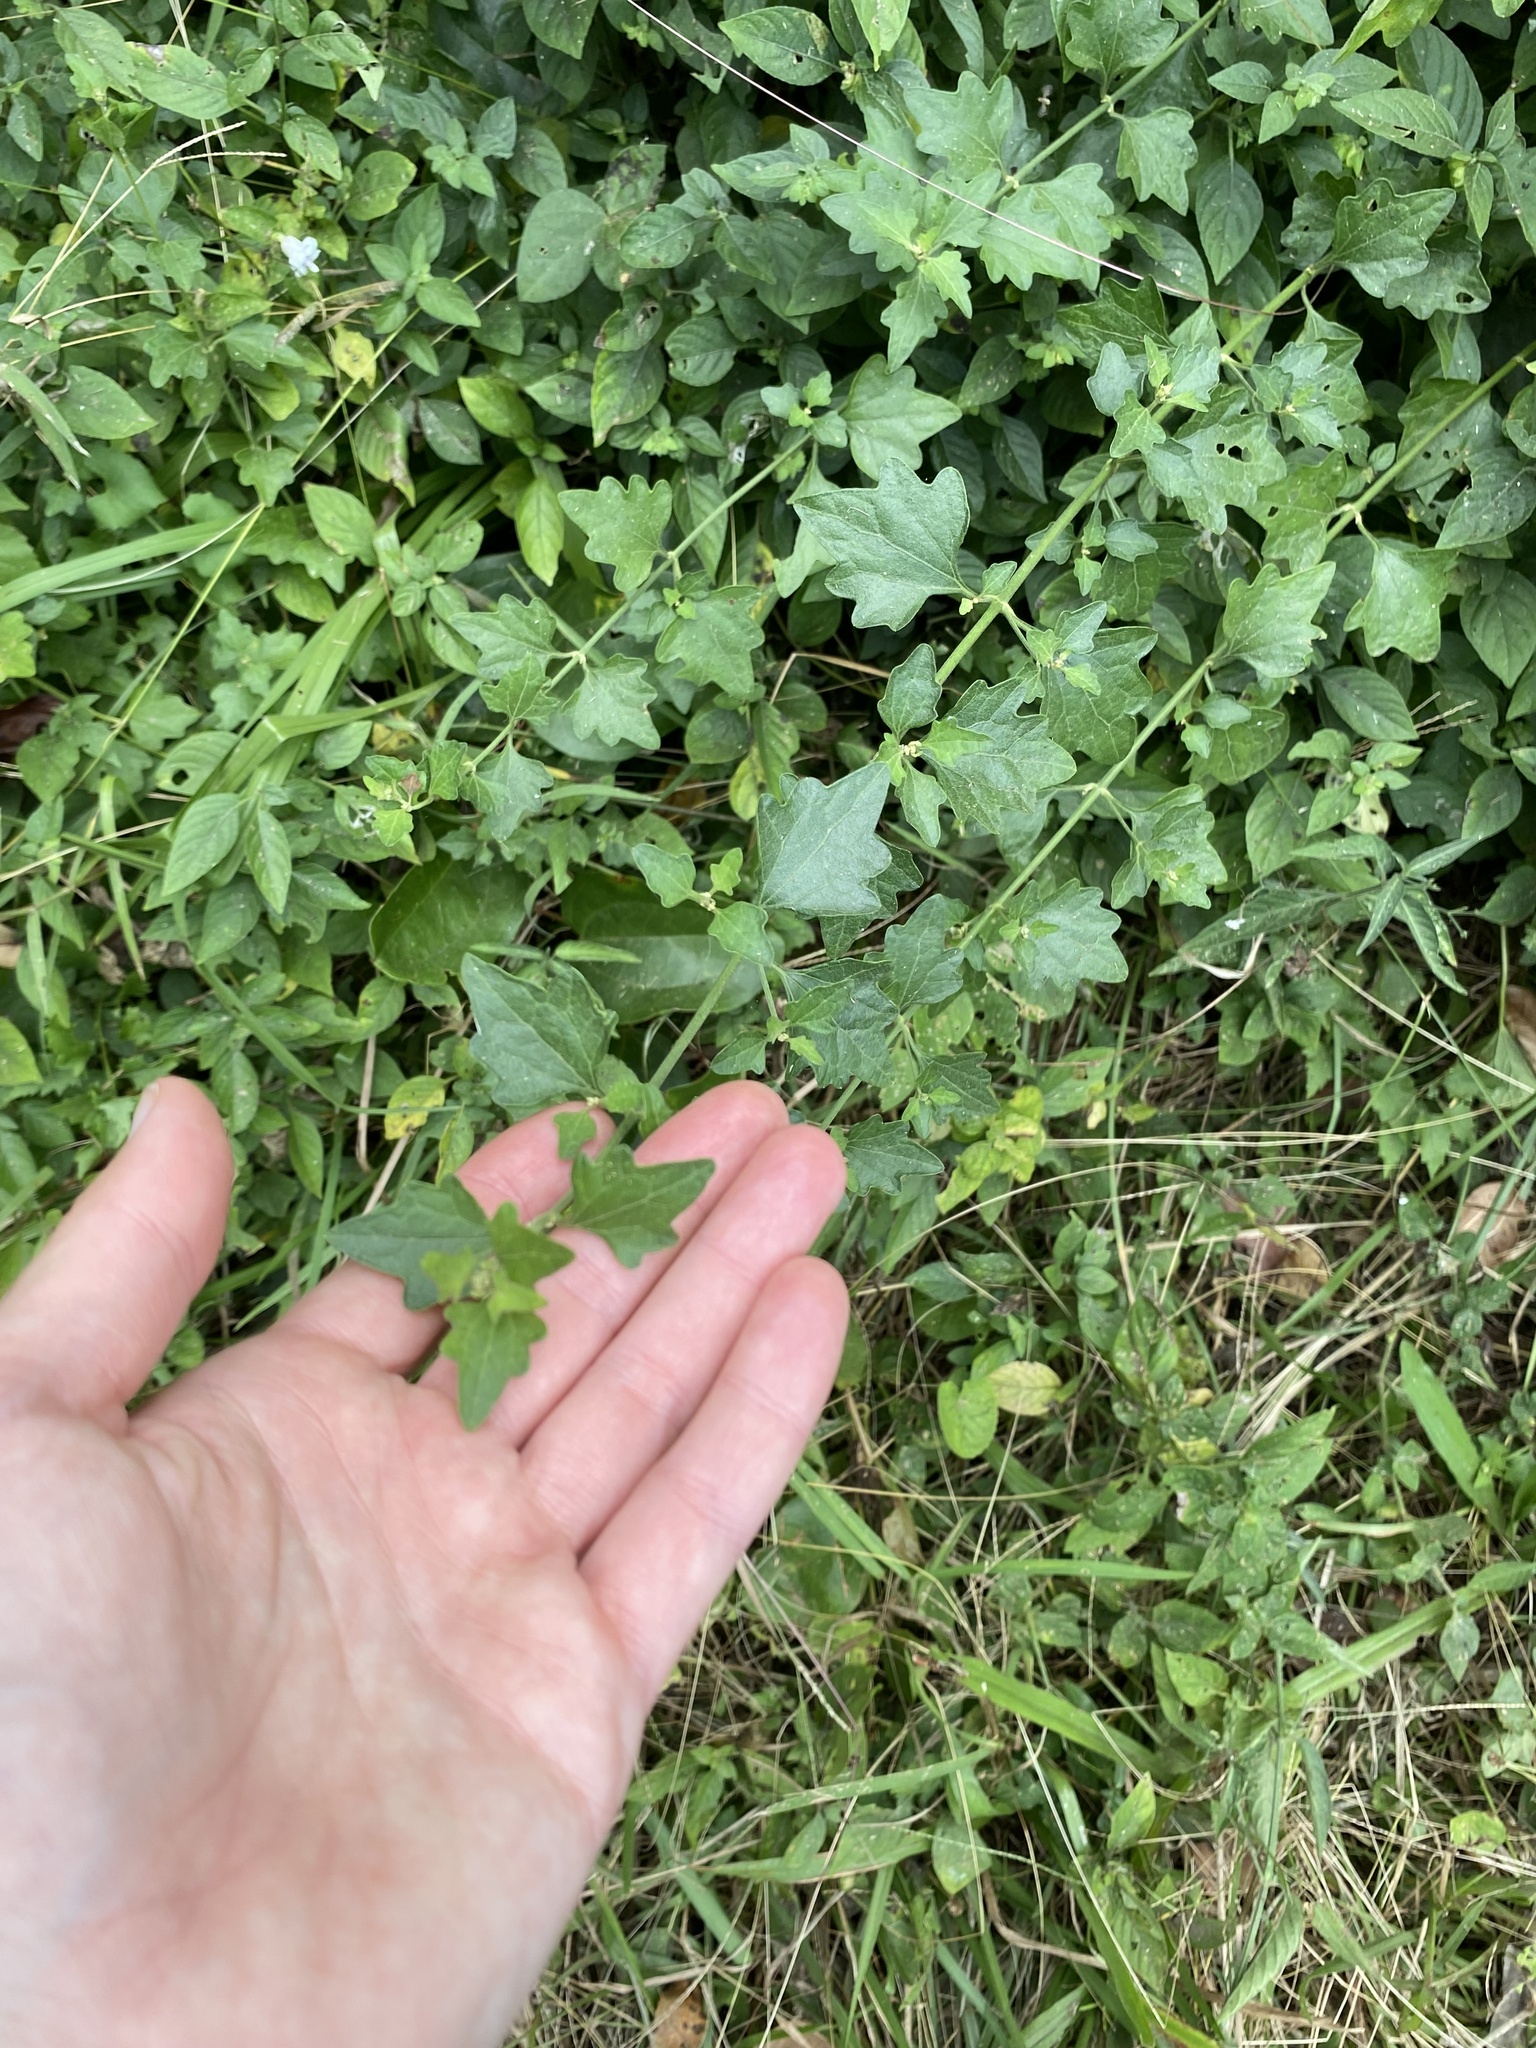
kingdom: Plantae
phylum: Tracheophyta
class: Magnoliopsida
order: Asterales
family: Asteraceae
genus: Microglossa
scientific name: Microglossa mespilifolia
